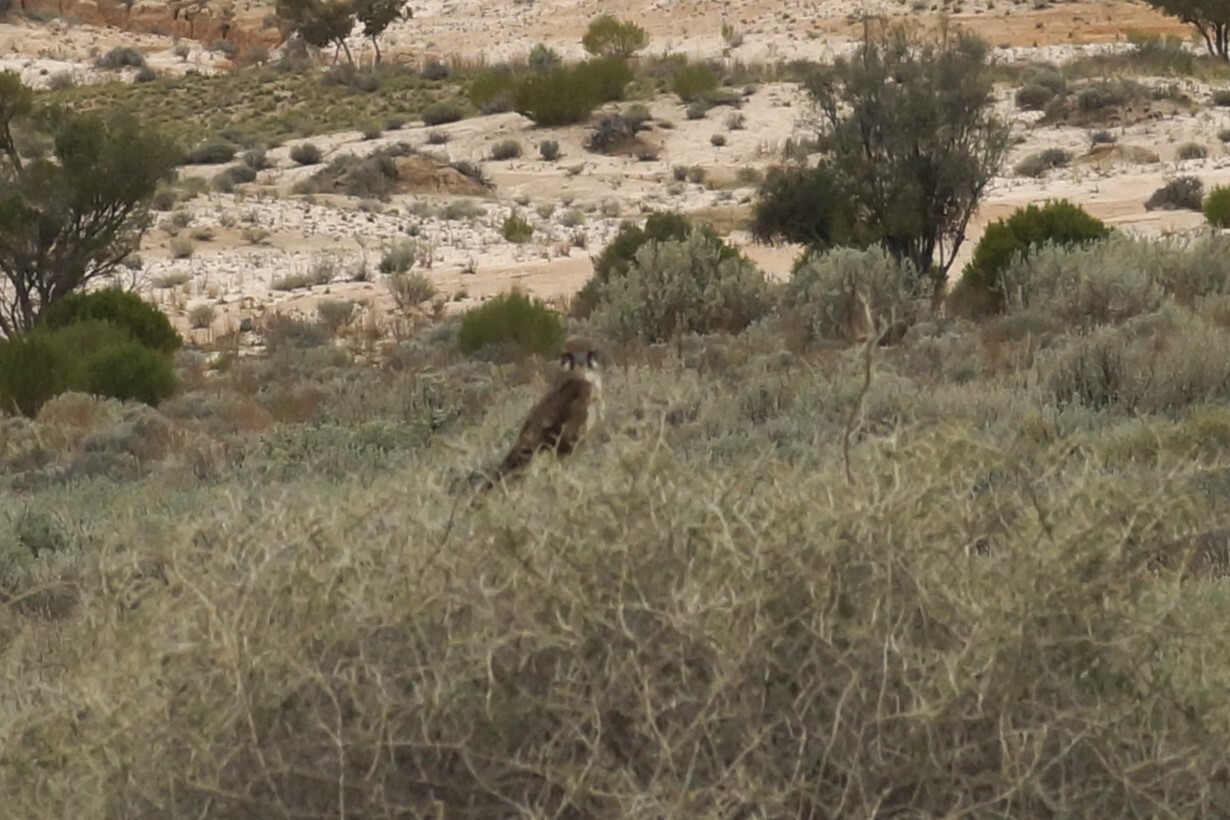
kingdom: Animalia
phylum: Chordata
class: Aves
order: Falconiformes
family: Falconidae
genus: Falco
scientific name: Falco berigora
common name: Brown falcon
